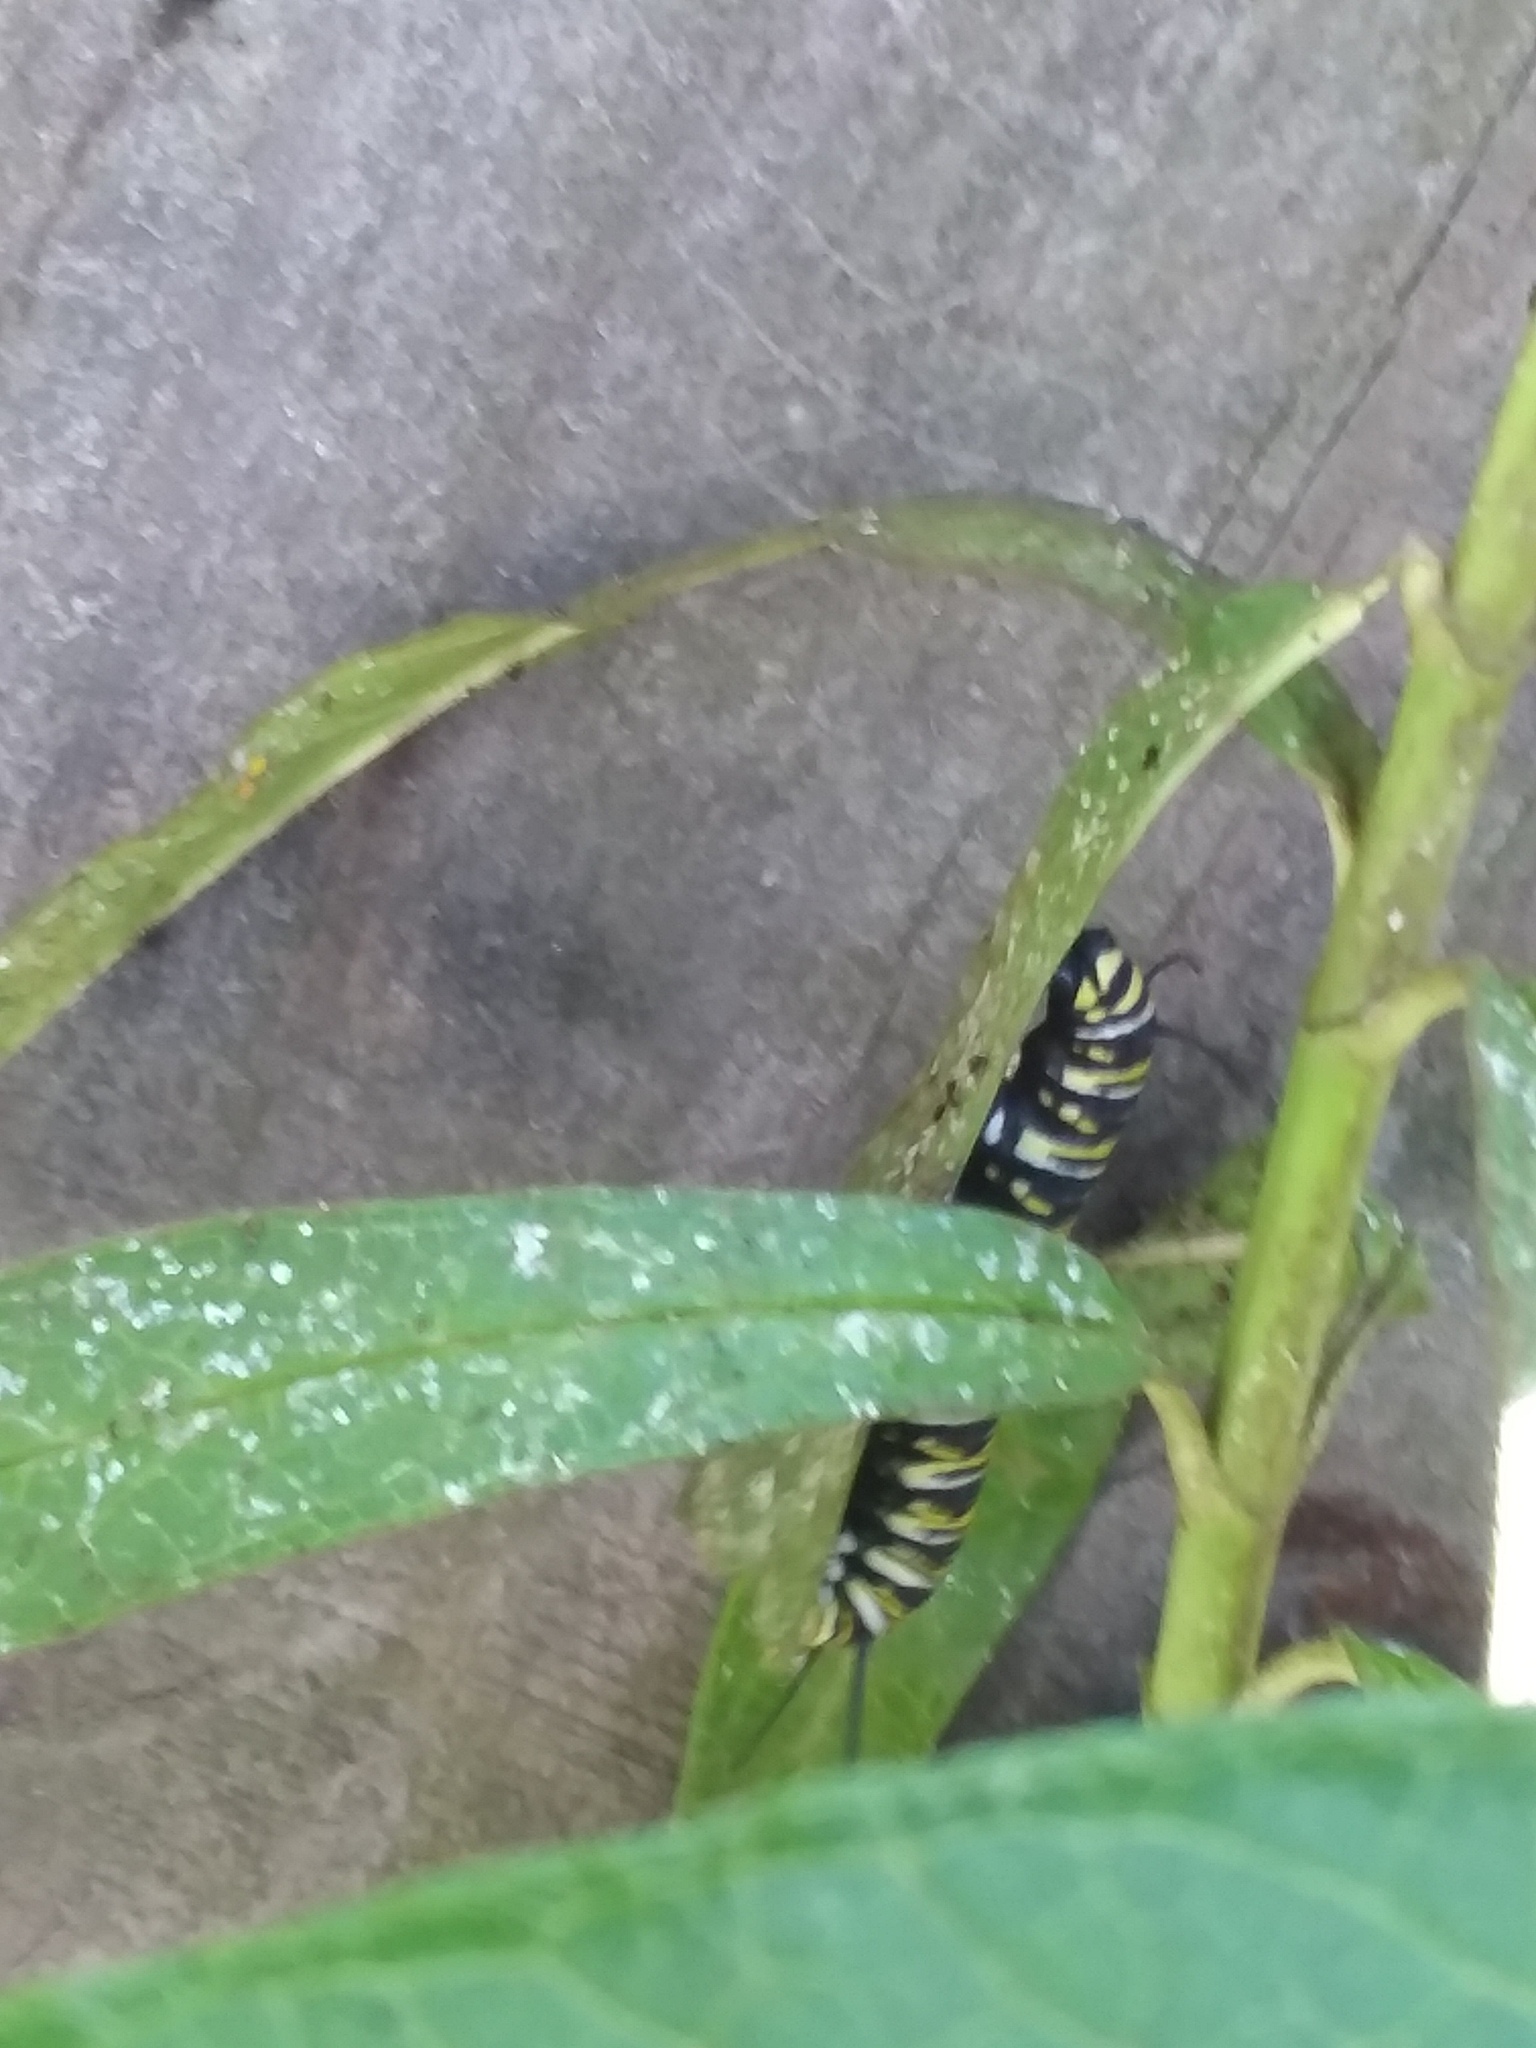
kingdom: Animalia
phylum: Arthropoda
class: Insecta
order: Lepidoptera
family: Nymphalidae
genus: Danaus
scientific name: Danaus plexippus
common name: Monarch
